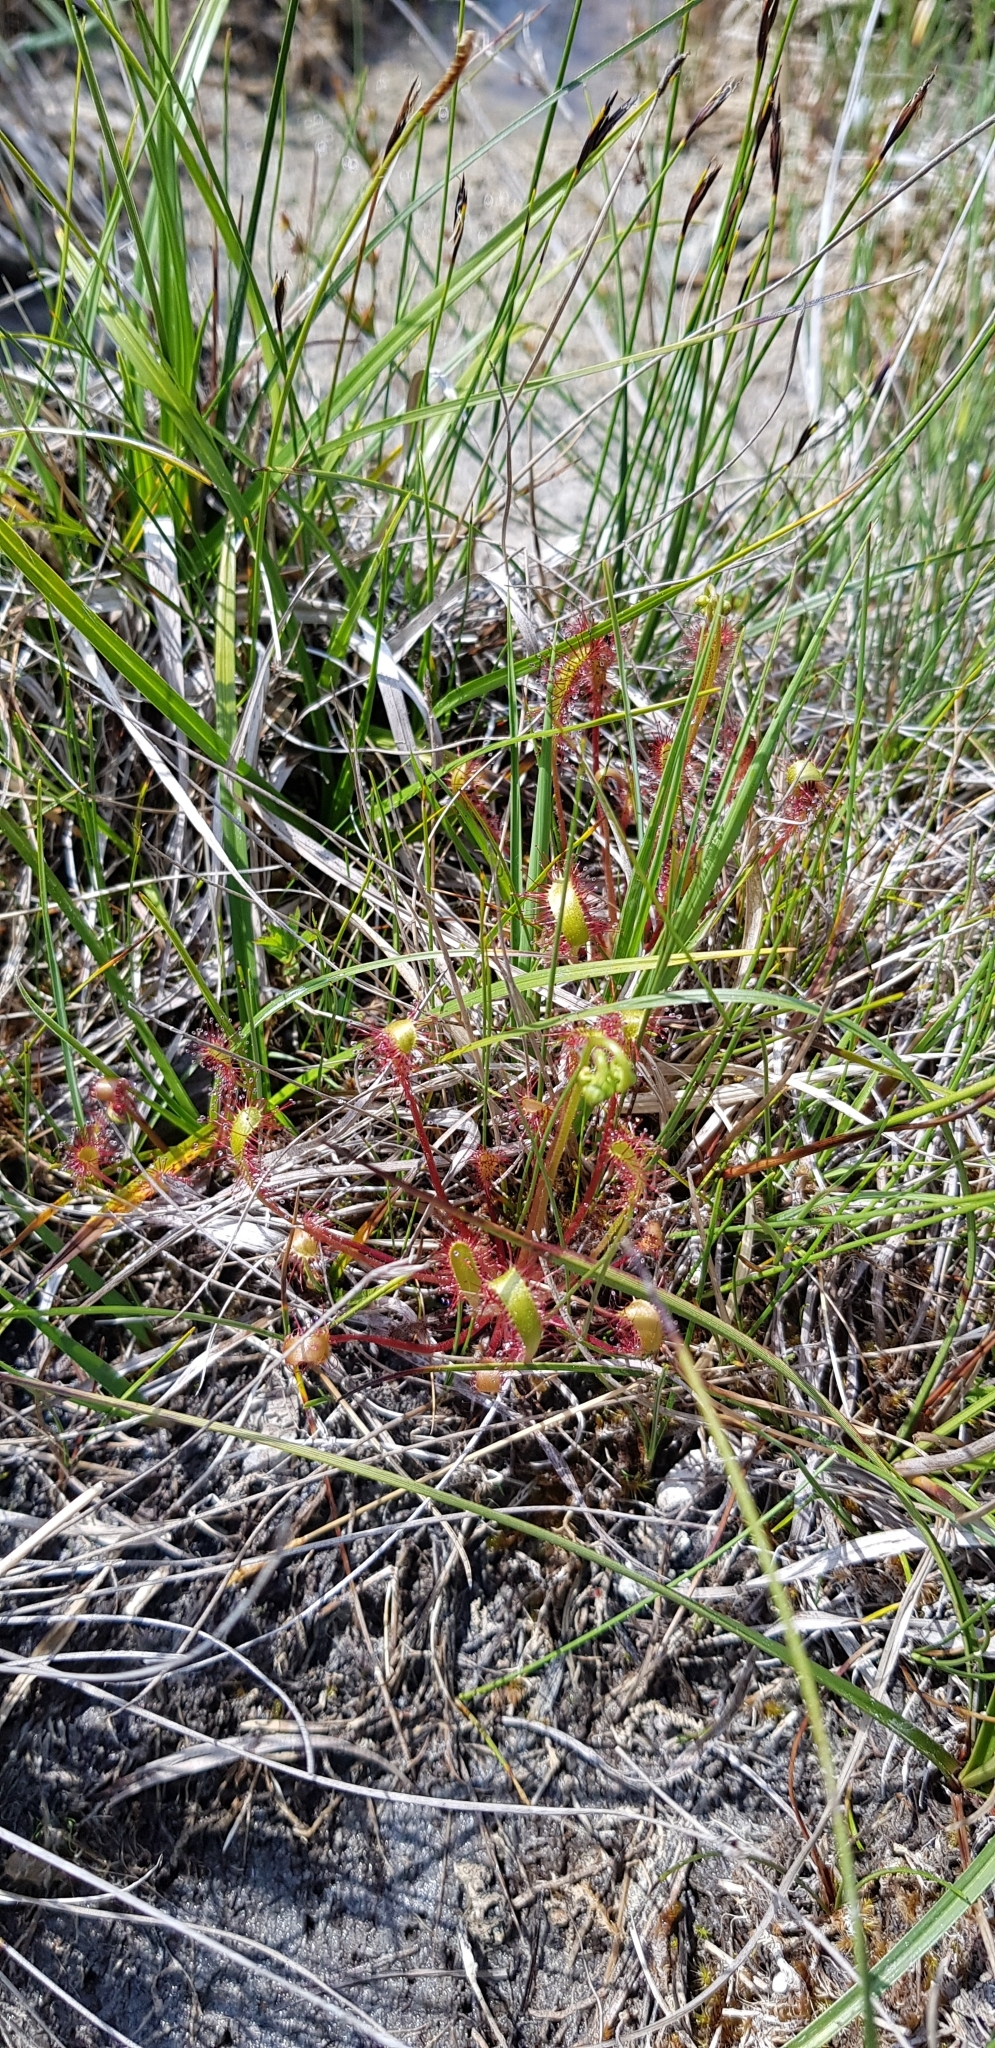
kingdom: Plantae
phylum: Tracheophyta
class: Magnoliopsida
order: Caryophyllales
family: Droseraceae
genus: Drosera
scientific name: Drosera anglica
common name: Great sundew
